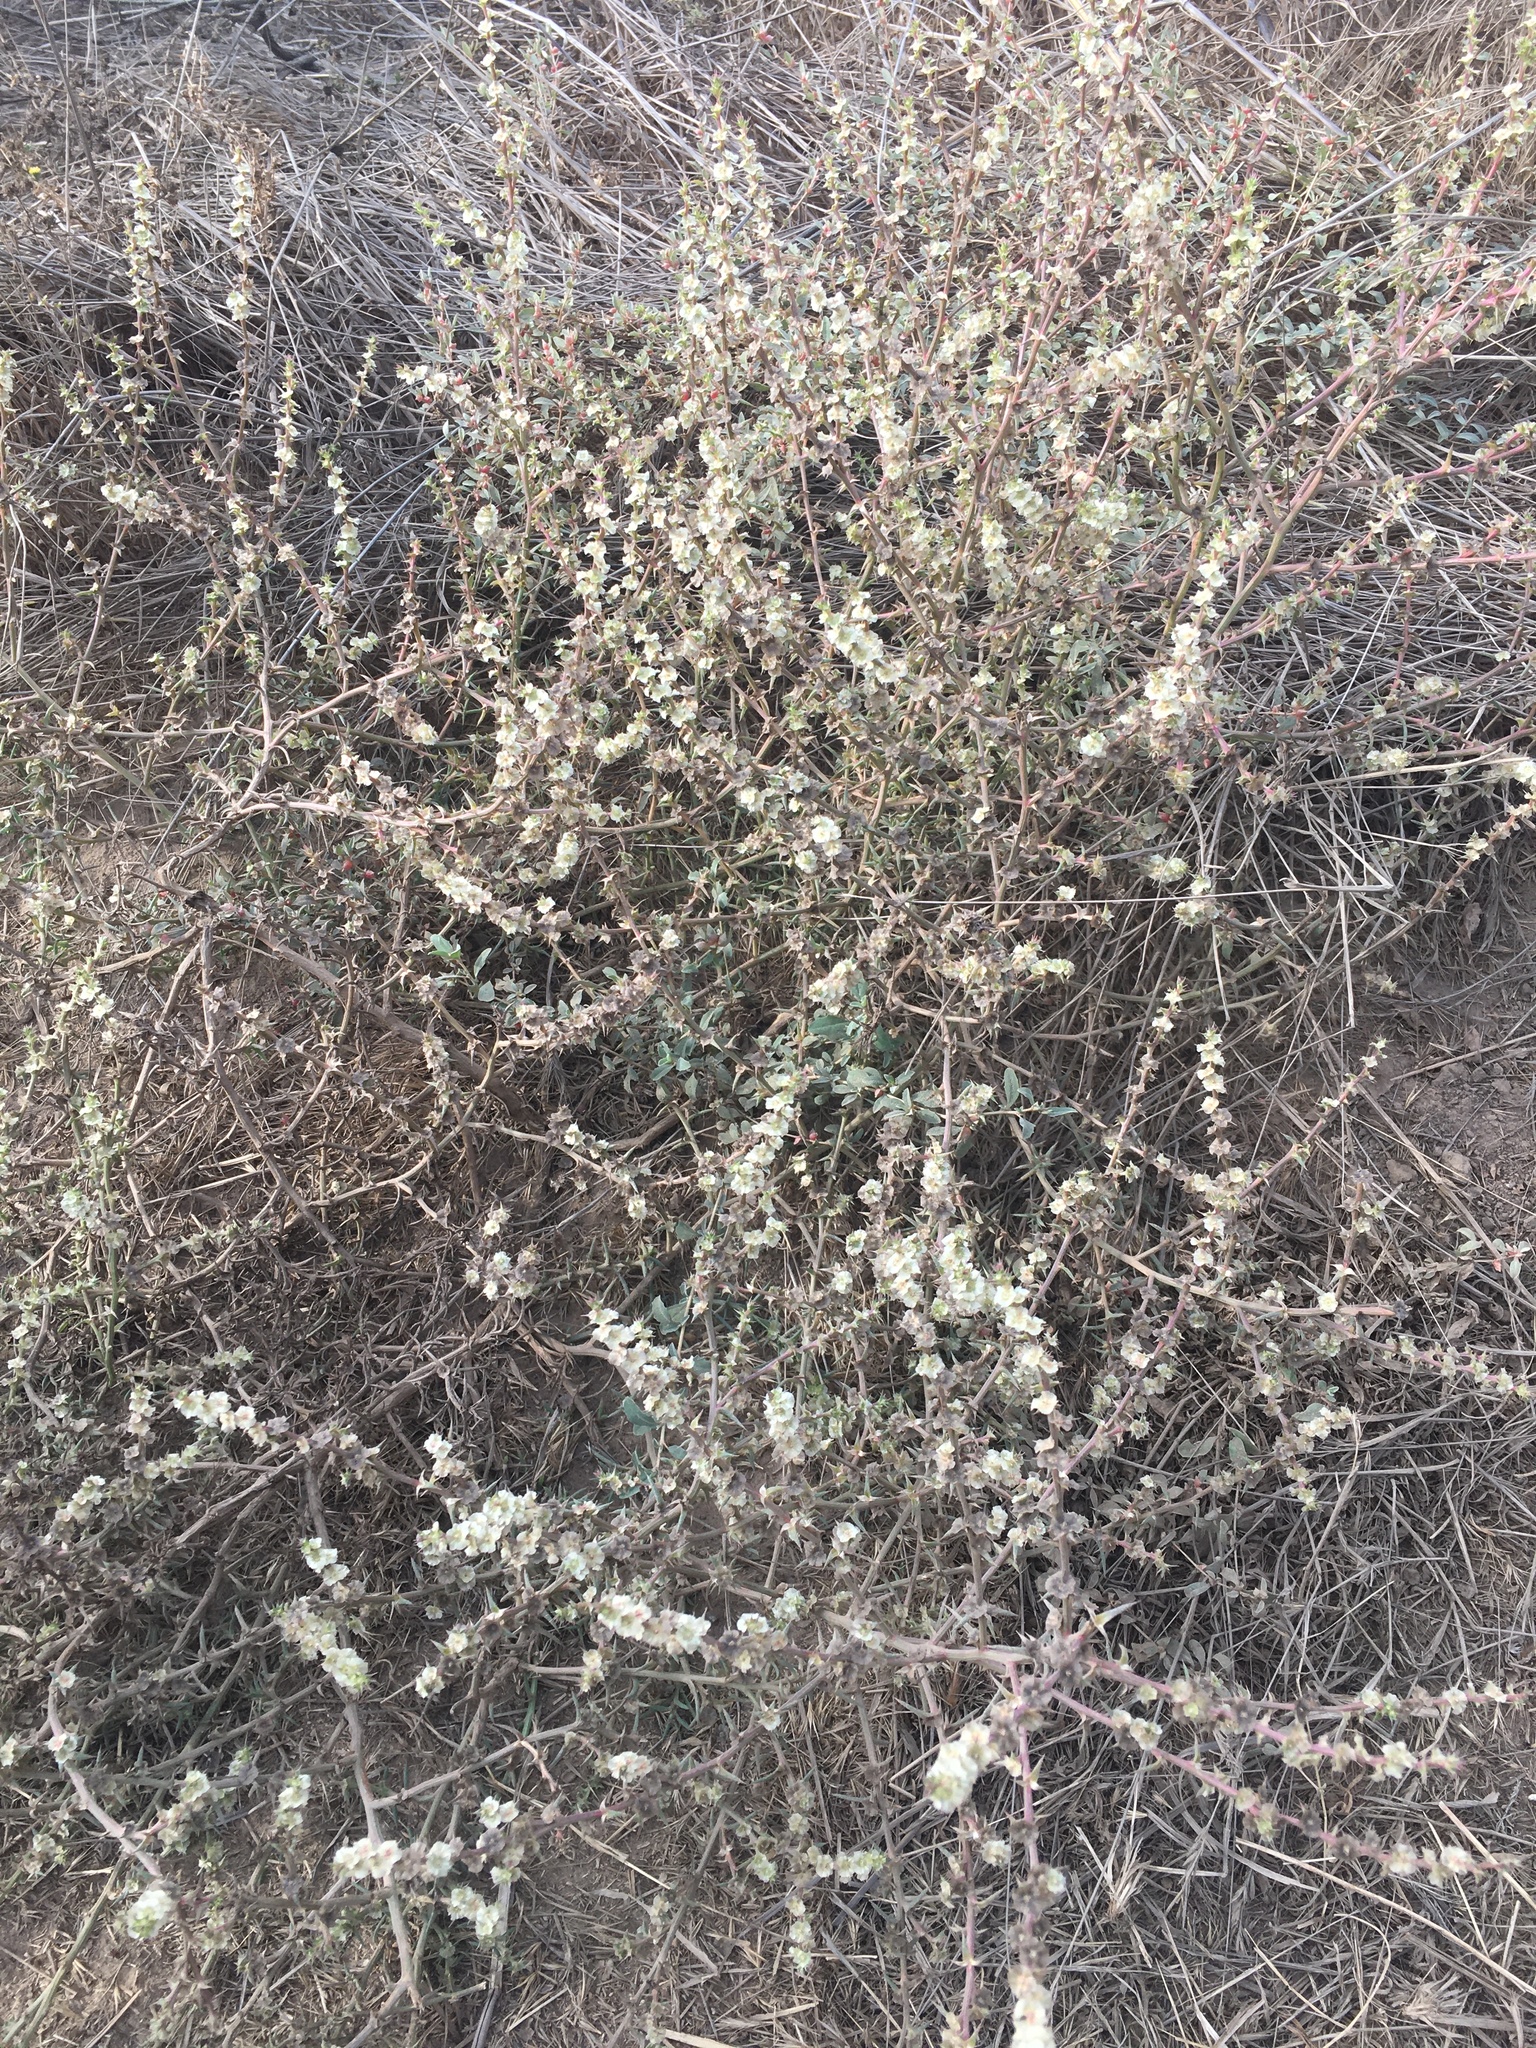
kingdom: Plantae
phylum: Tracheophyta
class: Magnoliopsida
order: Caryophyllales
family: Amaranthaceae
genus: Salsola
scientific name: Salsola australis
